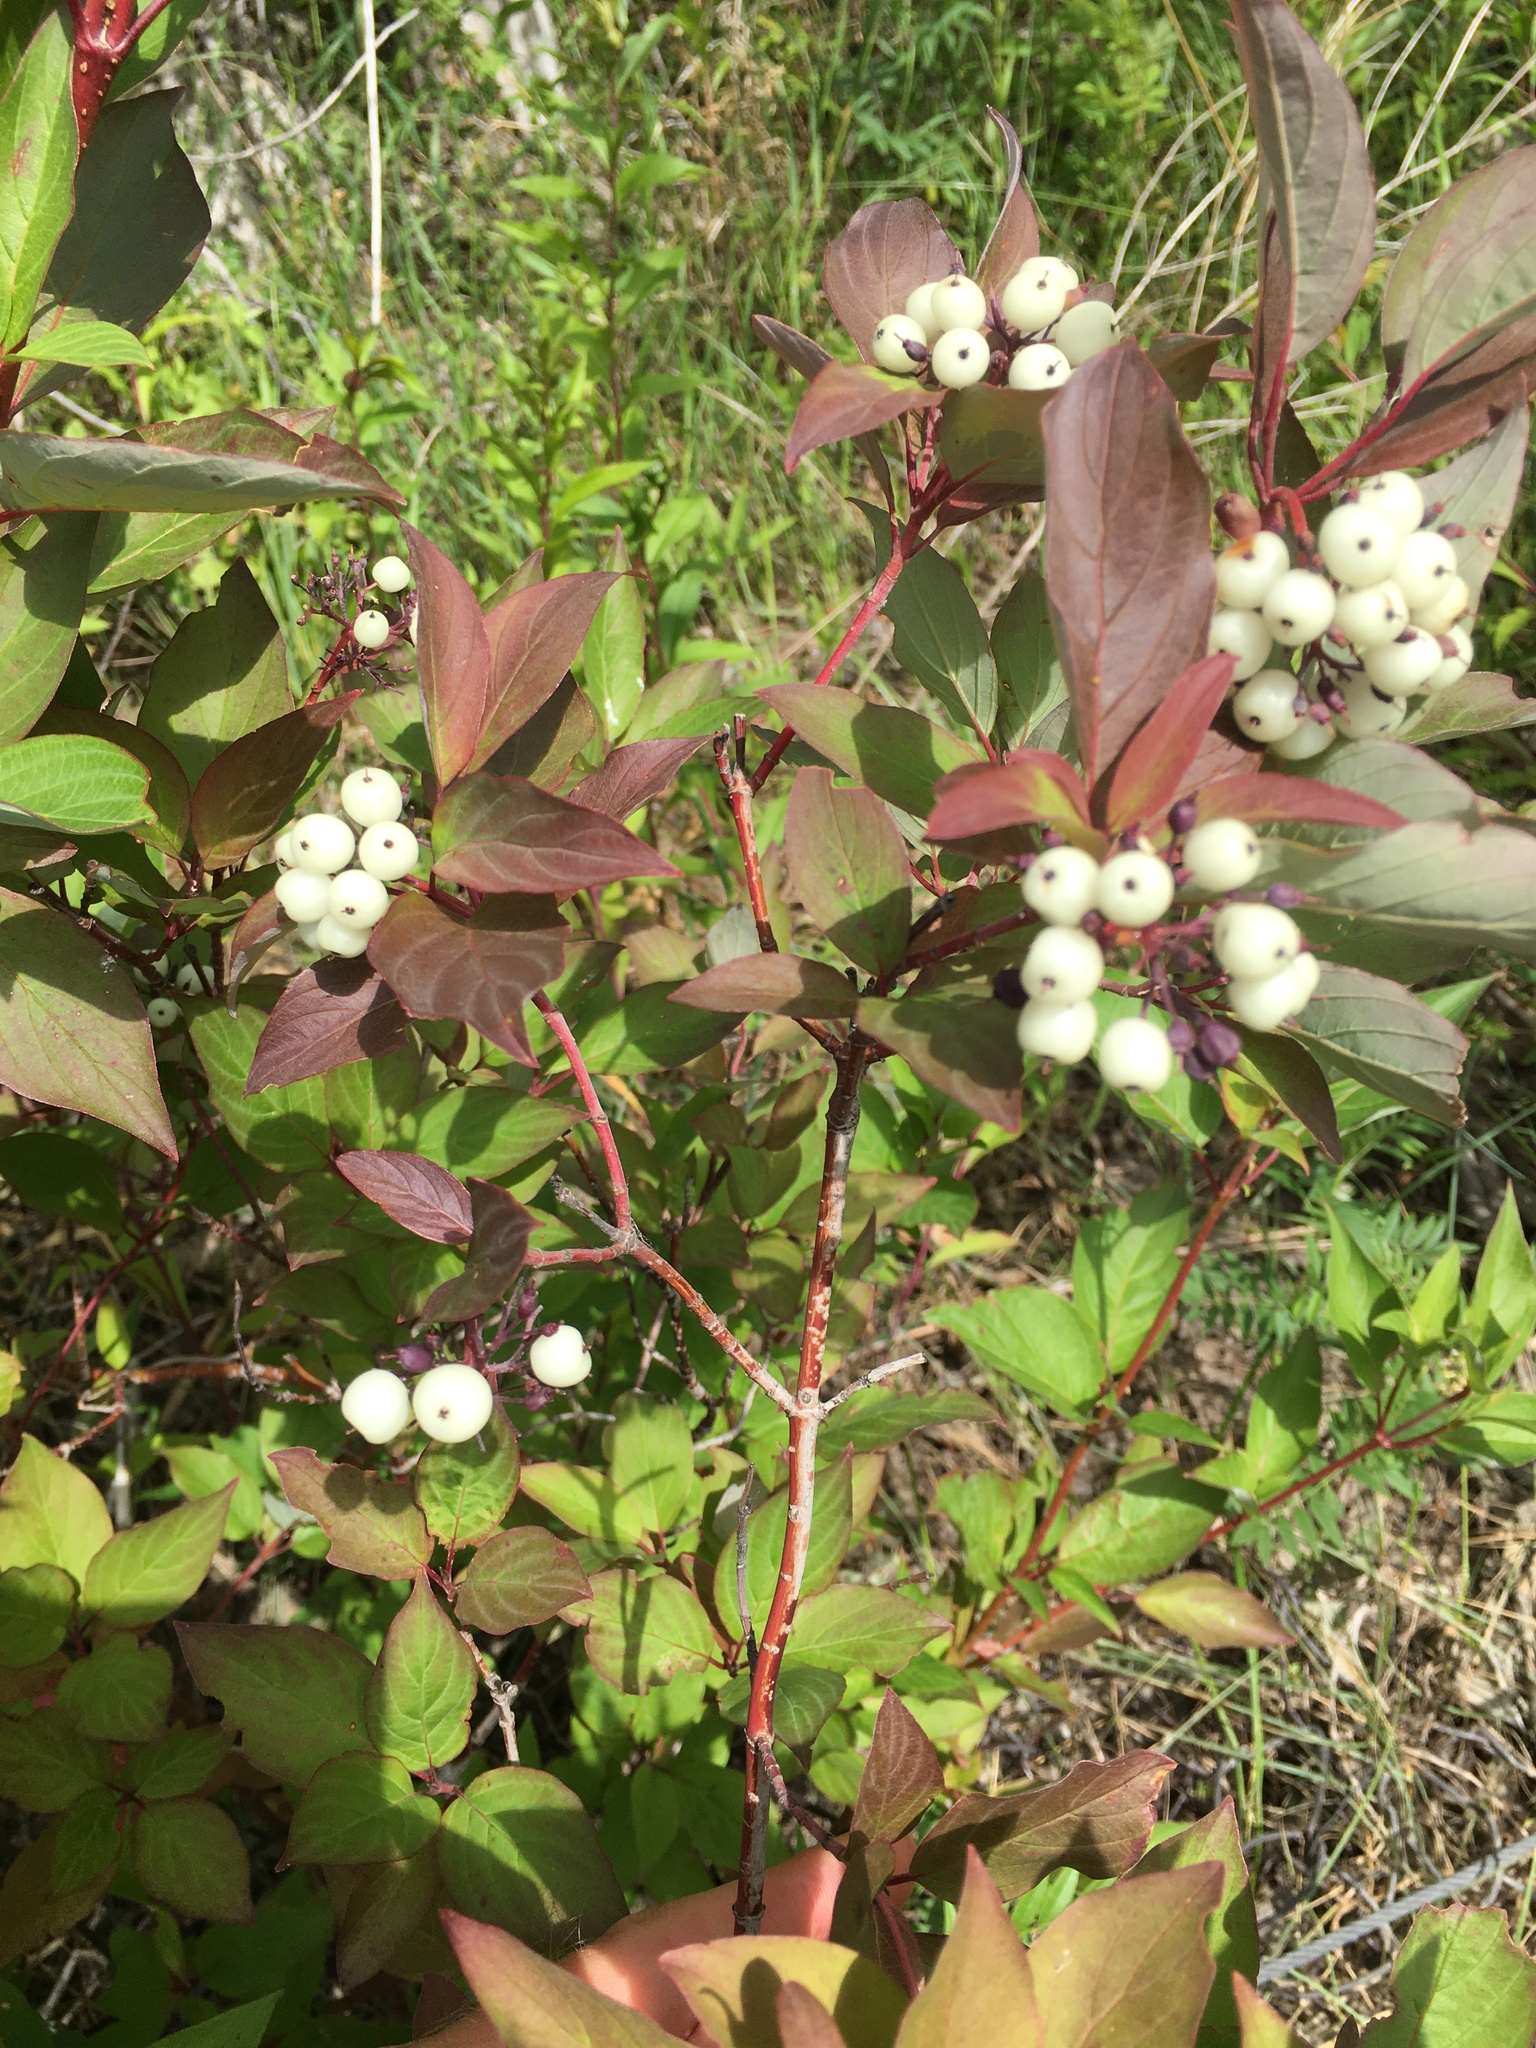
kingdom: Plantae
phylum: Tracheophyta
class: Magnoliopsida
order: Cornales
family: Cornaceae
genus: Cornus
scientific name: Cornus sericea
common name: Red-osier dogwood
